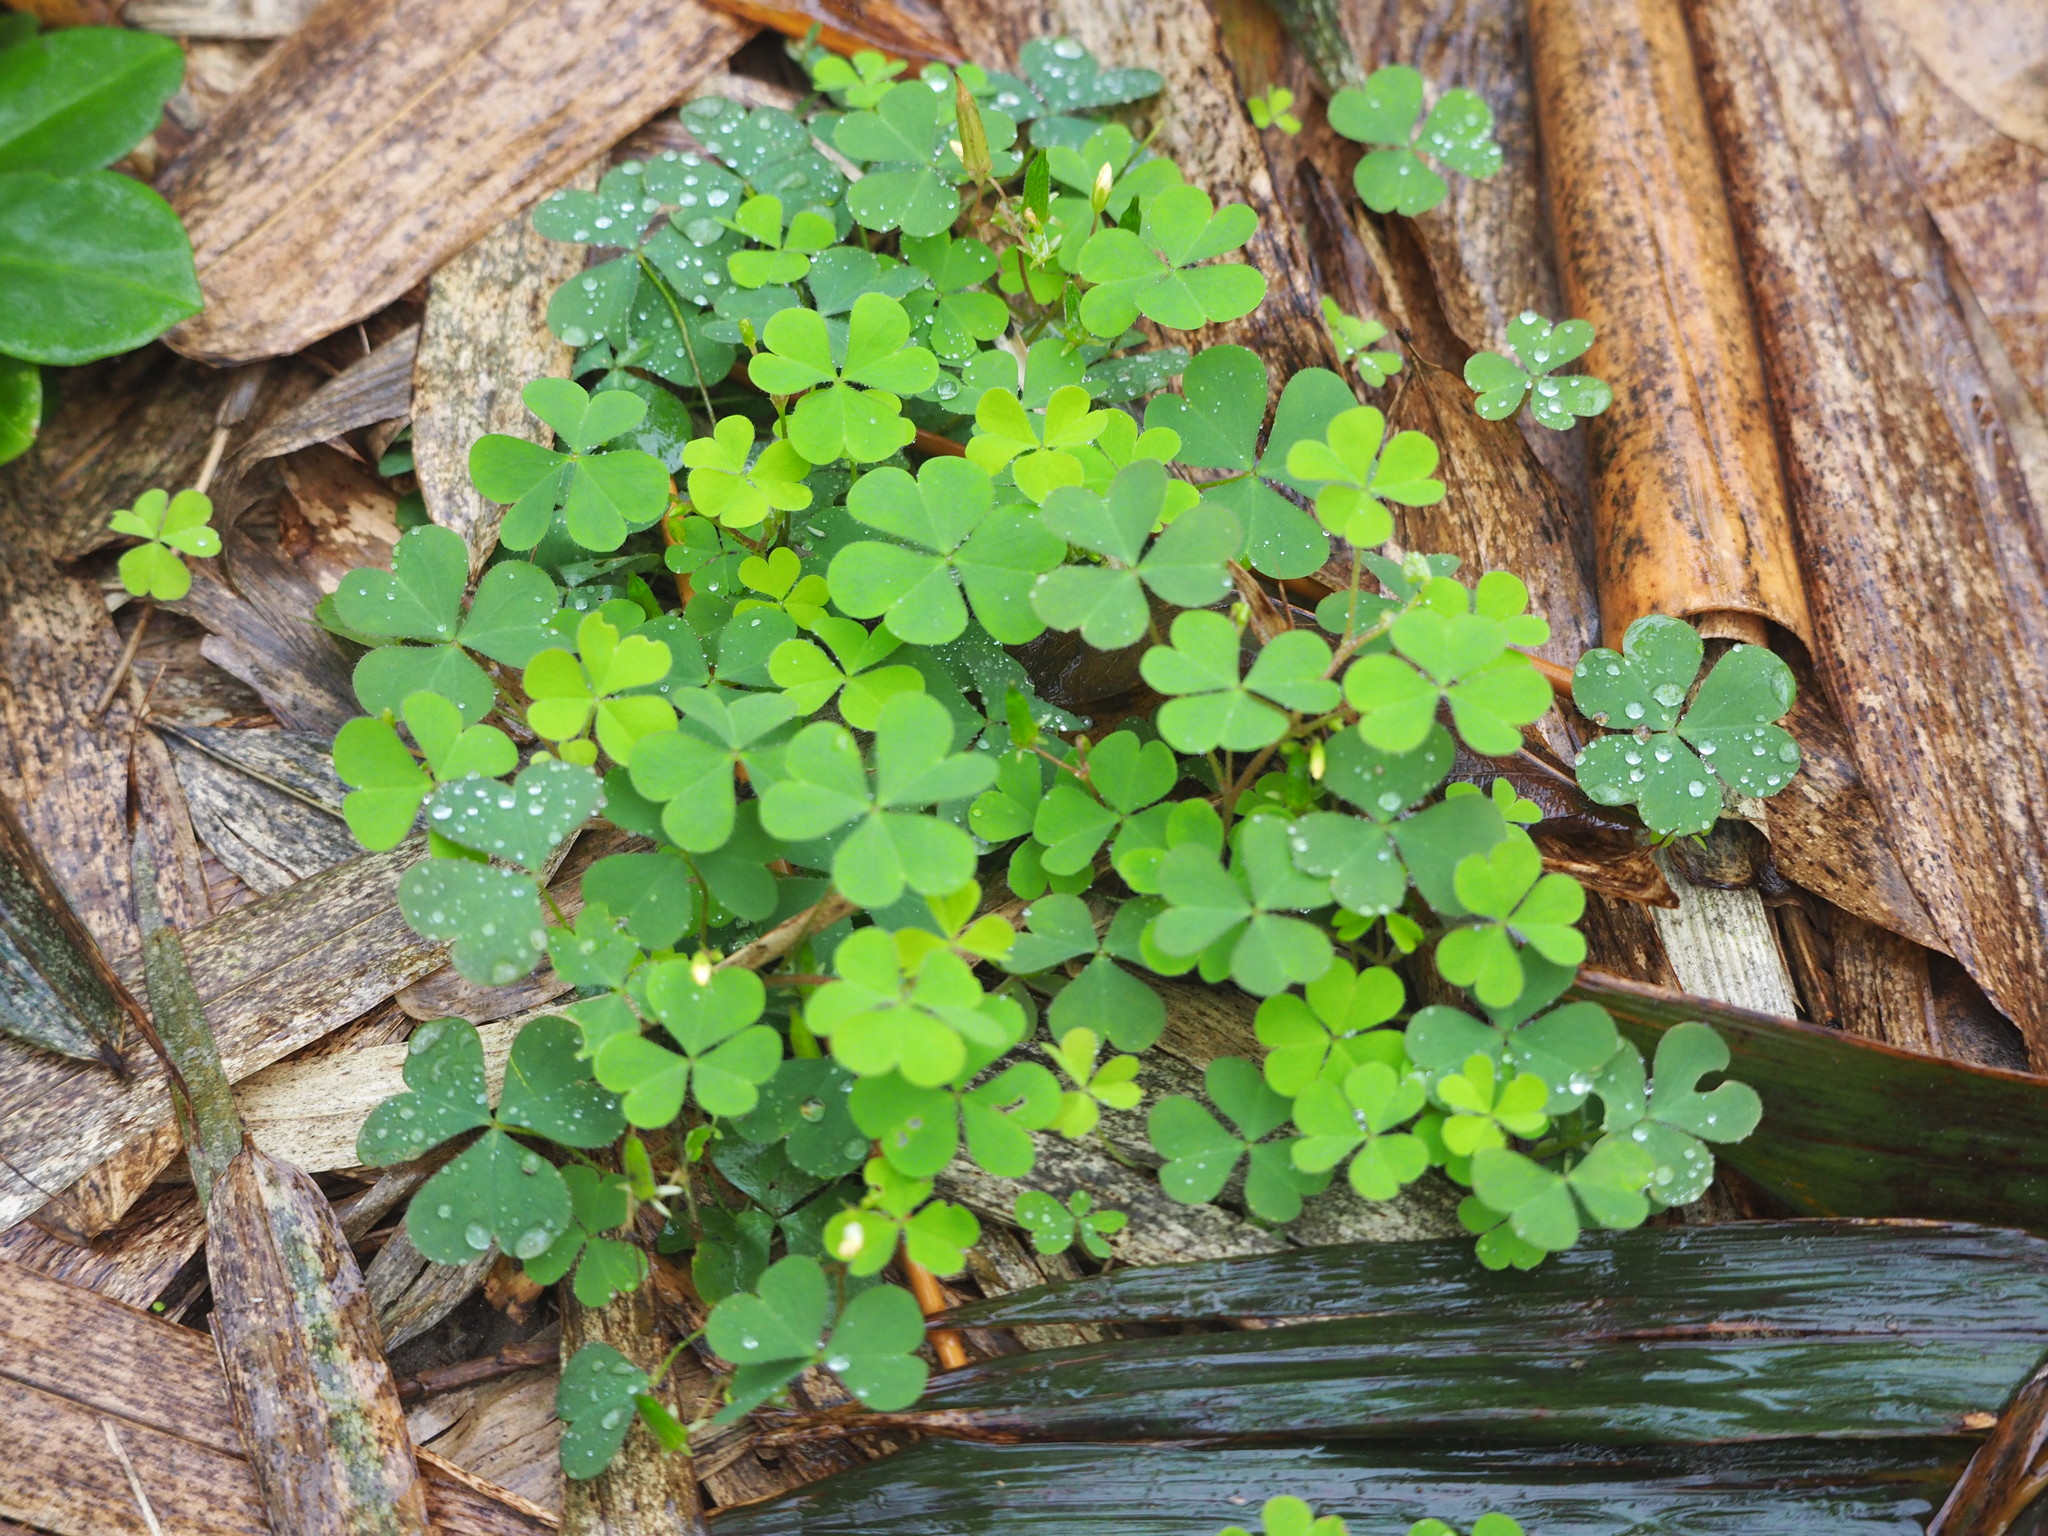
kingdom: Plantae
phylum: Tracheophyta
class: Magnoliopsida
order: Oxalidales
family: Oxalidaceae
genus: Oxalis
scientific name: Oxalis corniculata
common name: Procumbent yellow-sorrel
